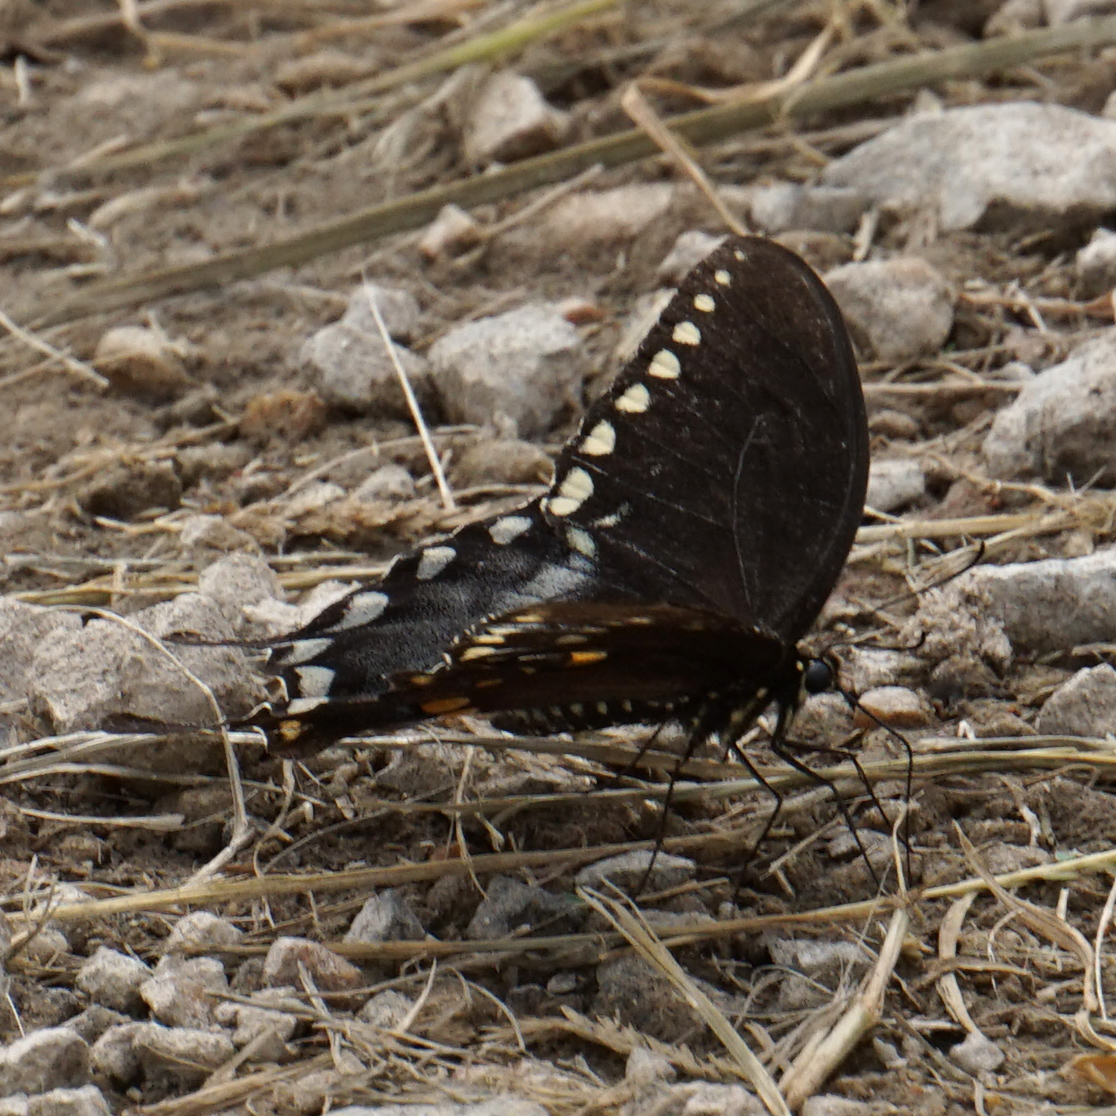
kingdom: Animalia
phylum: Arthropoda
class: Insecta
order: Lepidoptera
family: Papilionidae
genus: Papilio
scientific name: Papilio troilus
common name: Spicebush swallowtail
